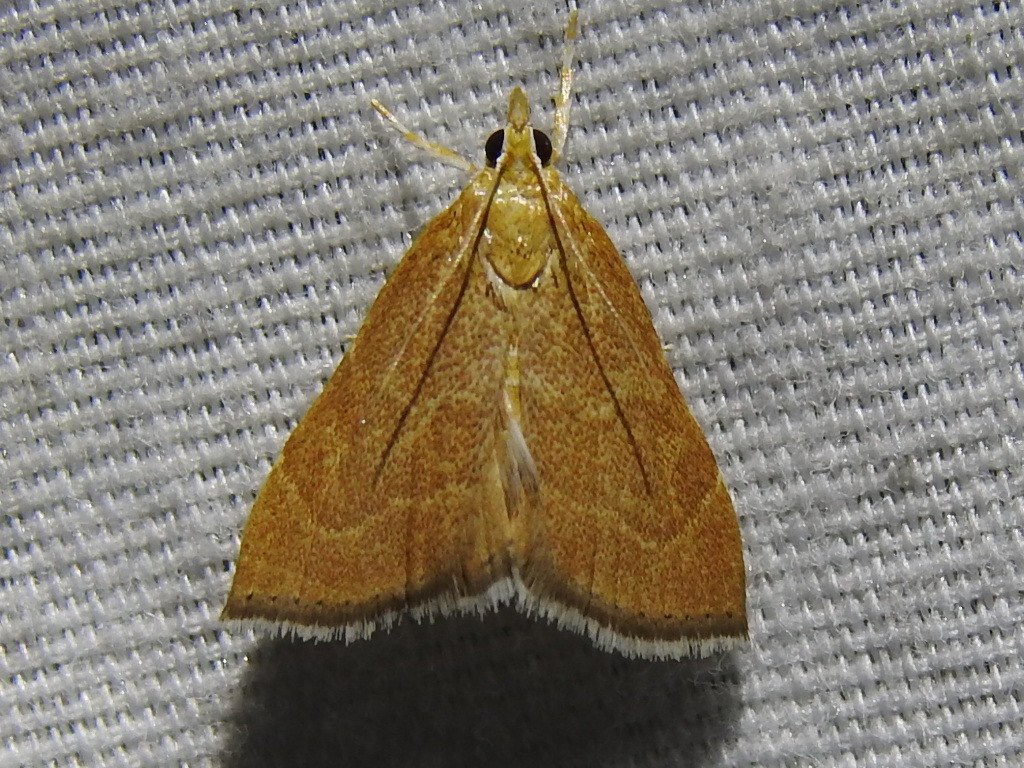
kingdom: Animalia
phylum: Arthropoda
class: Insecta
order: Lepidoptera
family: Crambidae
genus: Glaphyria
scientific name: Glaphyria invisalis
